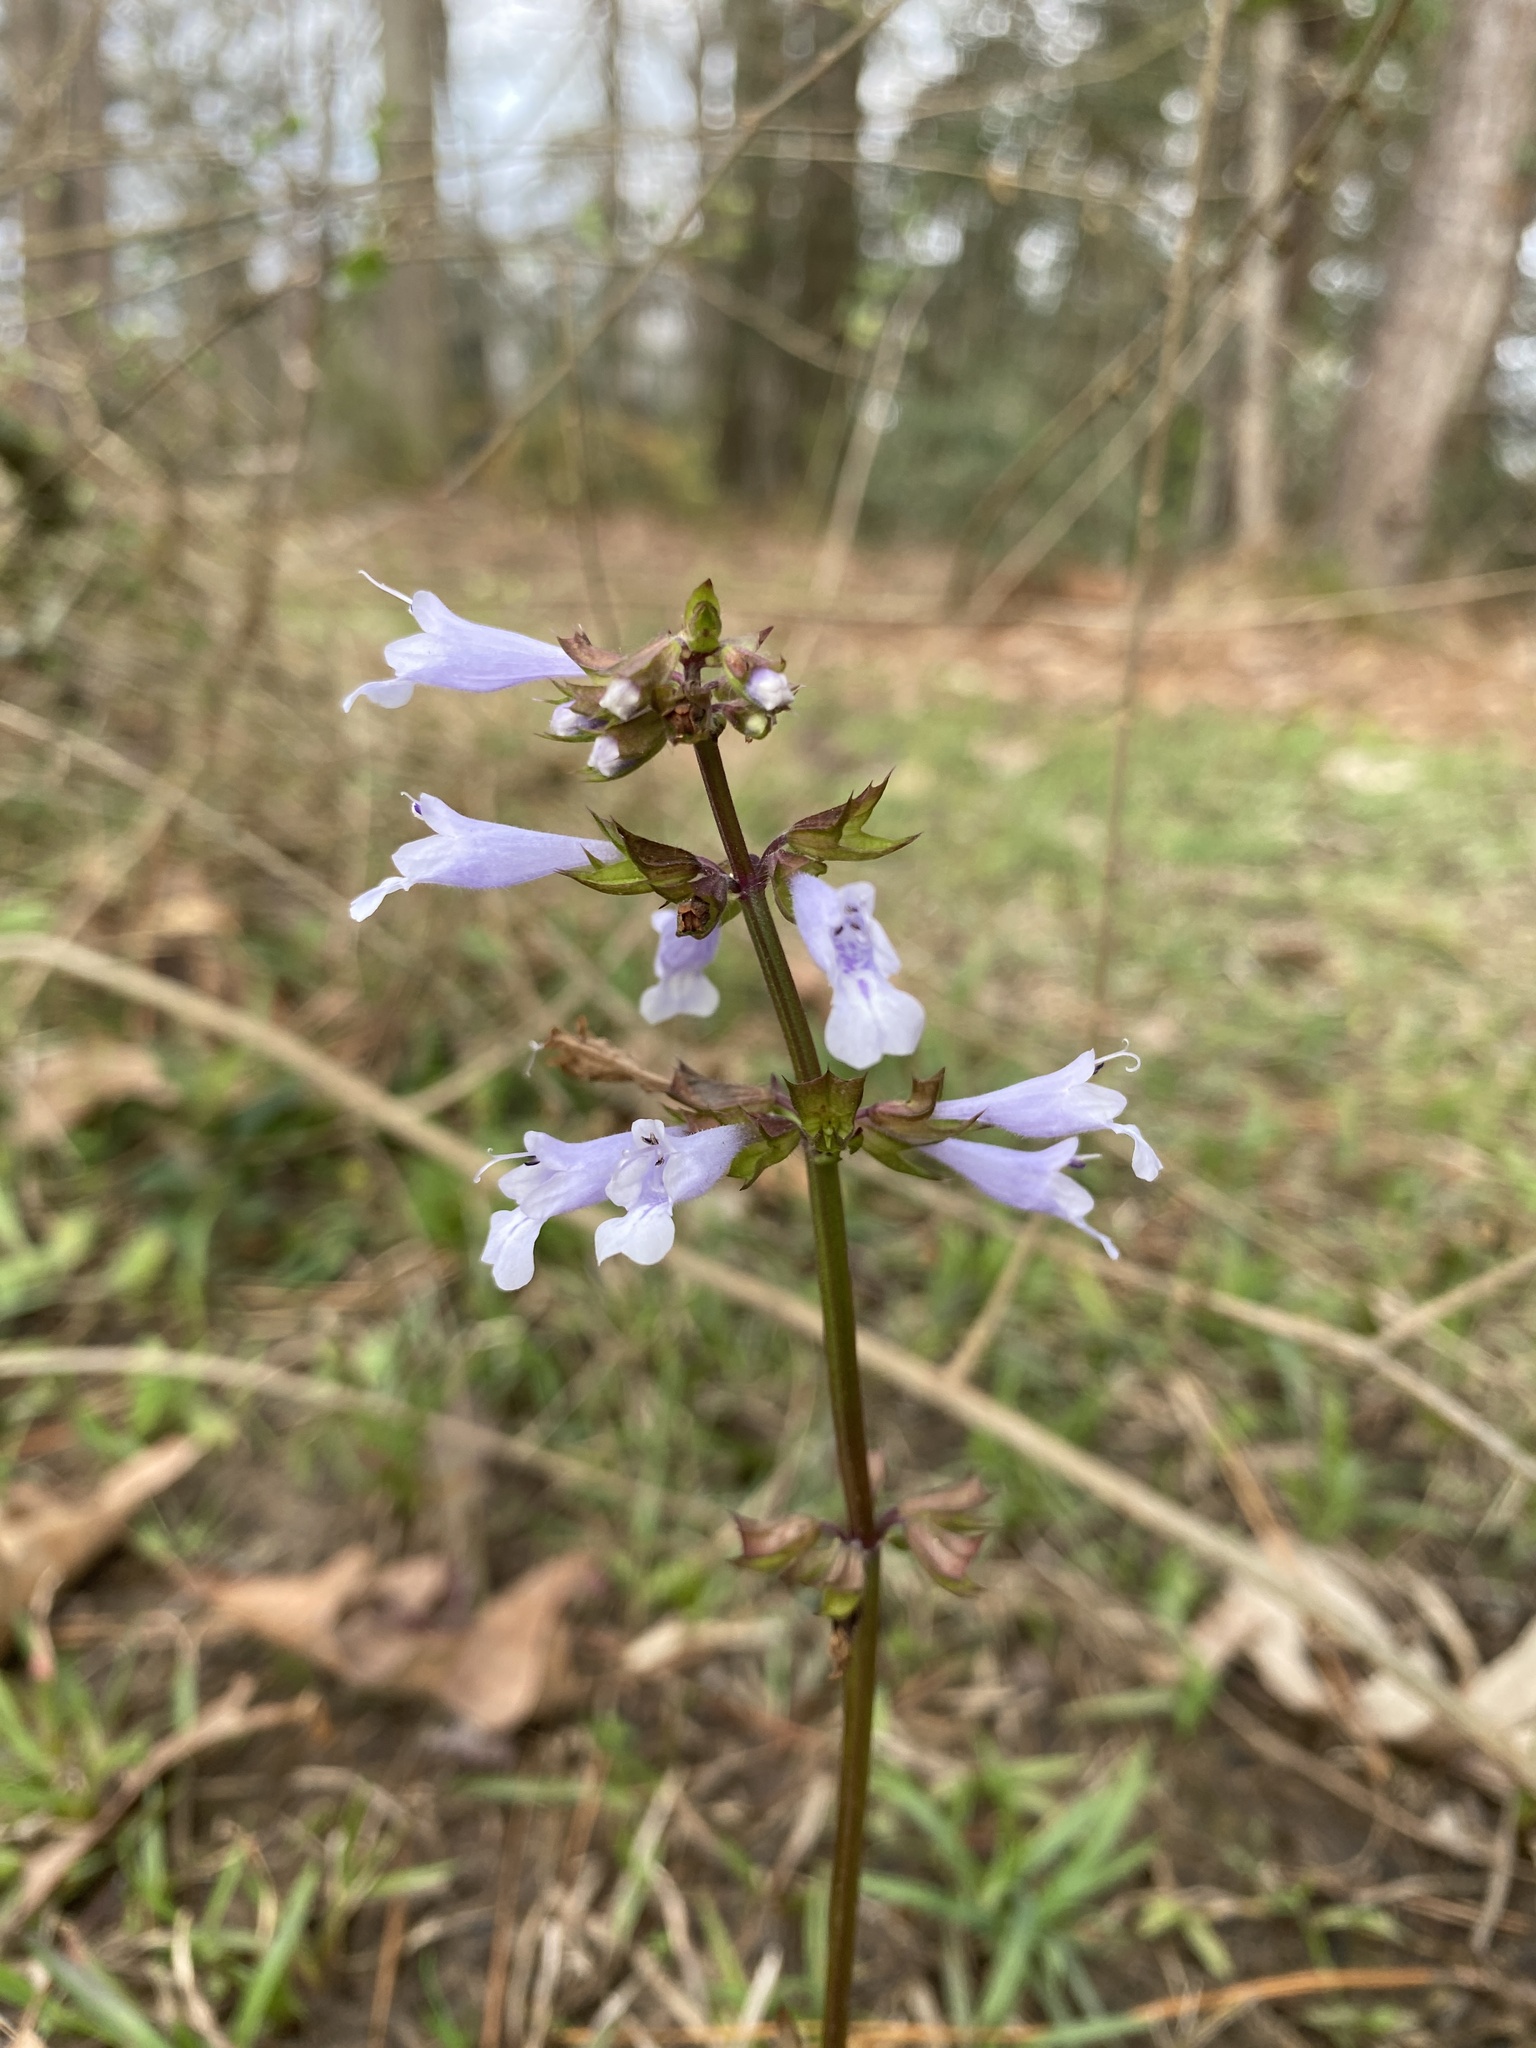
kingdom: Plantae
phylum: Tracheophyta
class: Magnoliopsida
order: Lamiales
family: Lamiaceae
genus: Salvia
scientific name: Salvia lyrata
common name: Cancerweed
